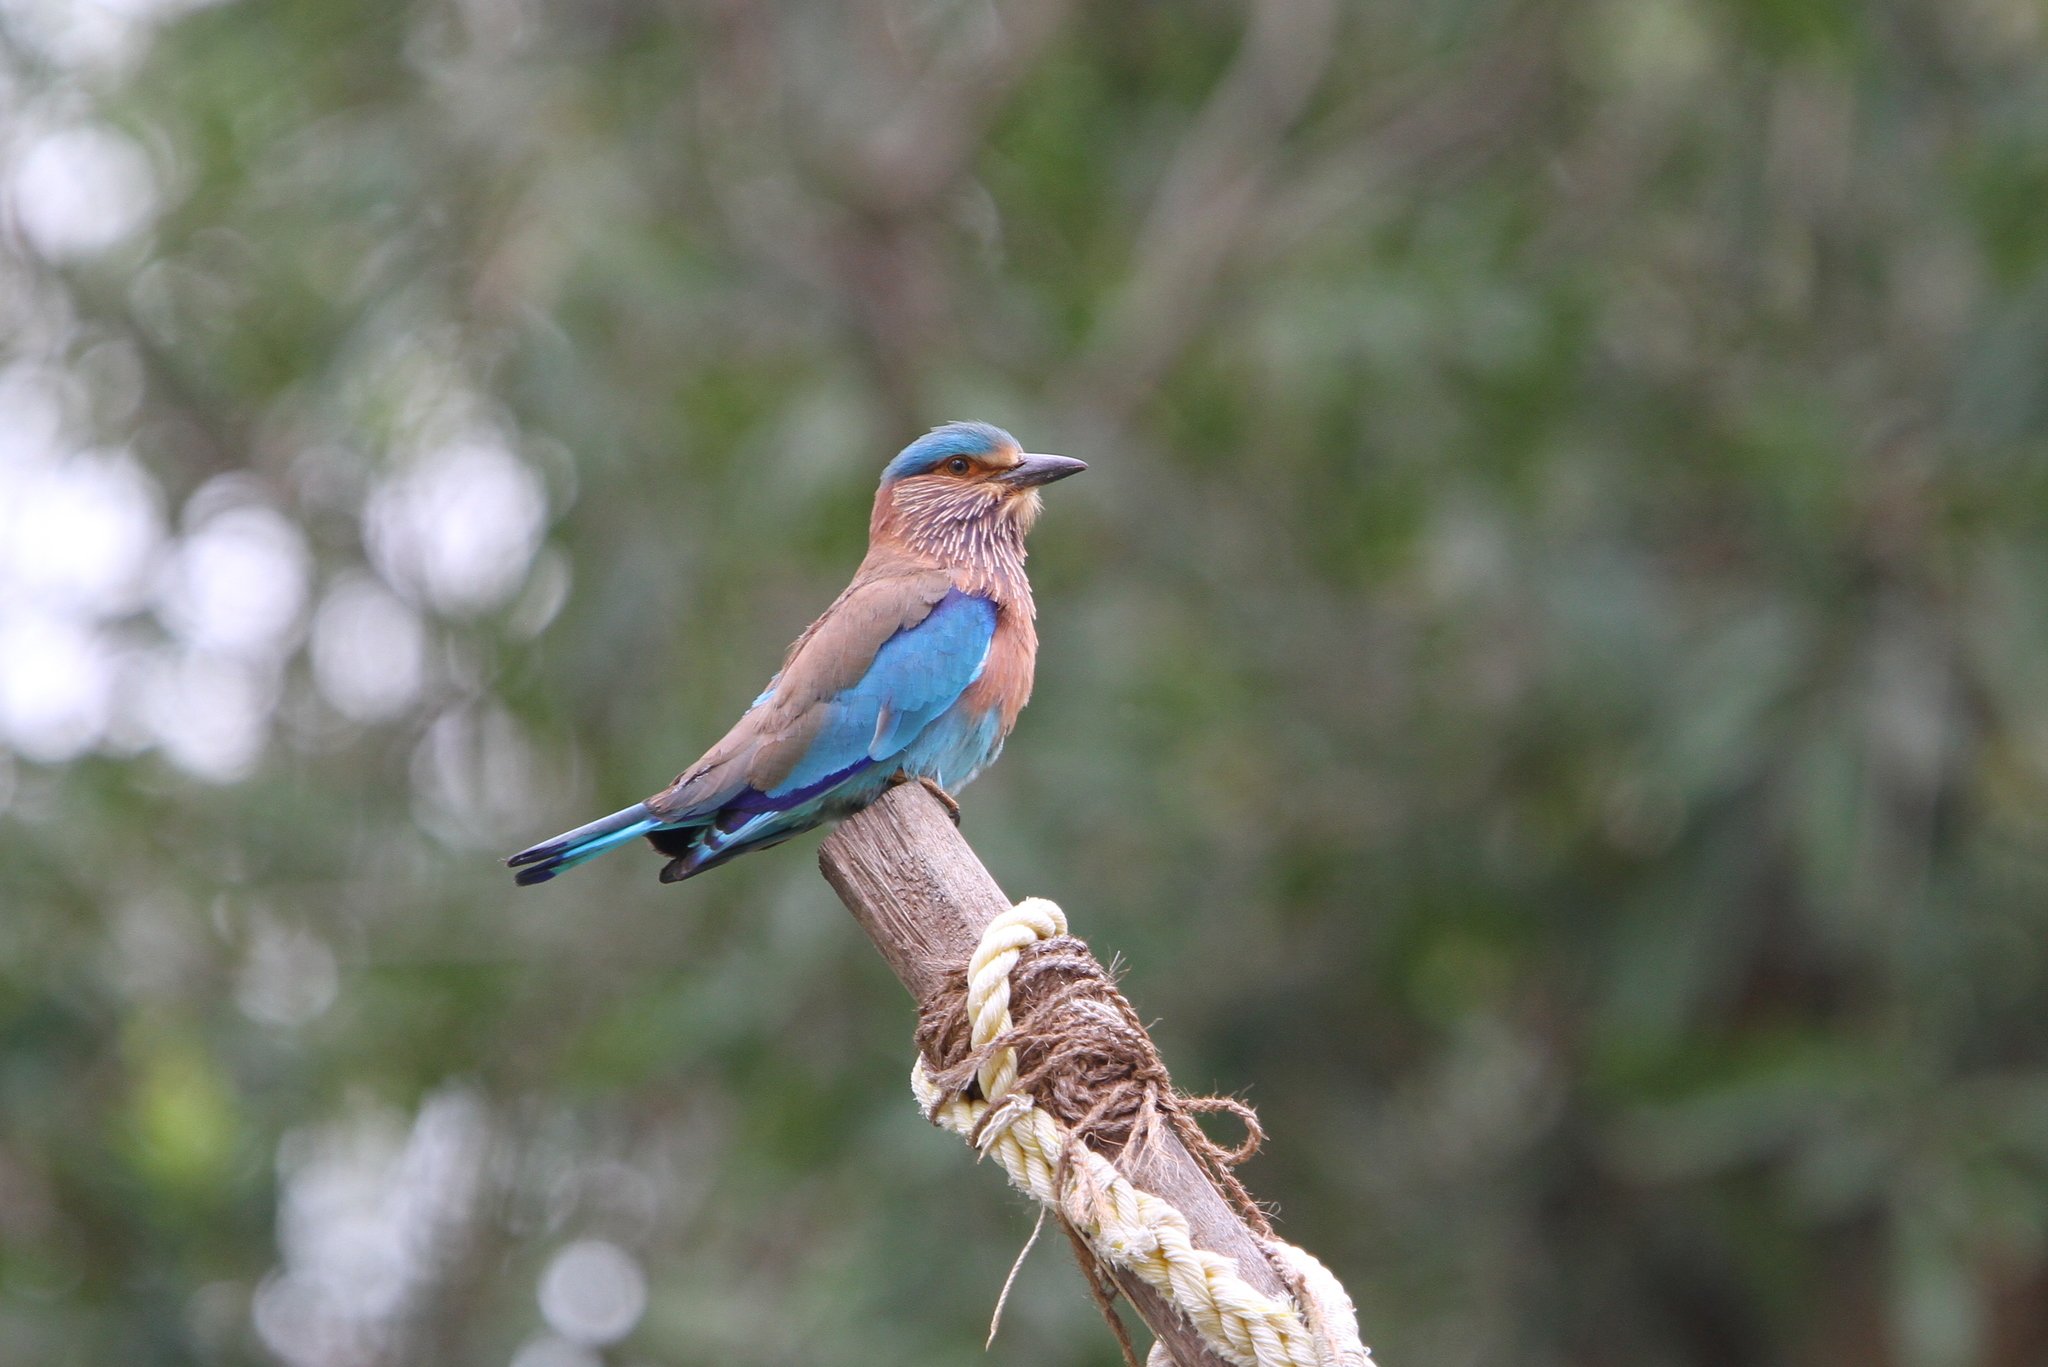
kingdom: Animalia
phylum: Chordata
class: Aves
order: Coraciiformes
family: Coraciidae
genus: Coracias
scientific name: Coracias benghalensis
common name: Indian roller
